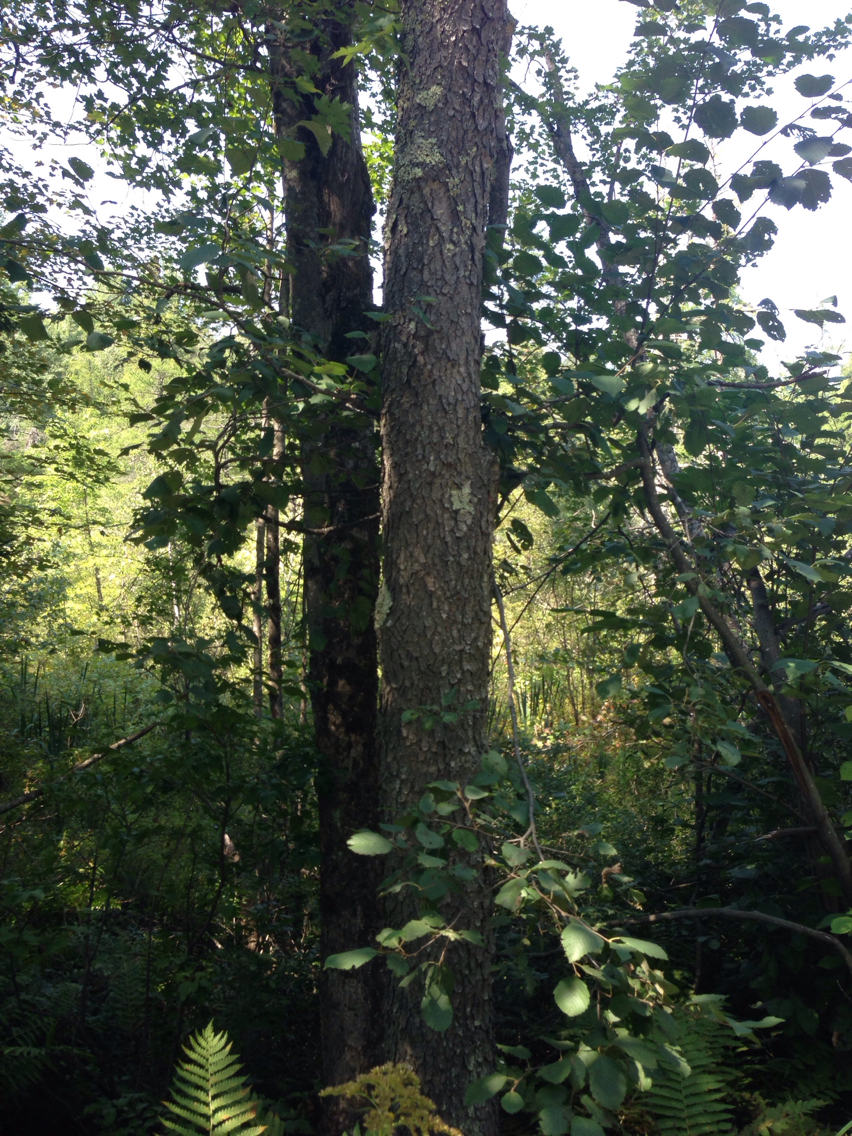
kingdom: Plantae
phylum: Tracheophyta
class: Magnoliopsida
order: Rosales
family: Rosaceae
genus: Prunus
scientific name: Prunus serotina
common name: Black cherry
